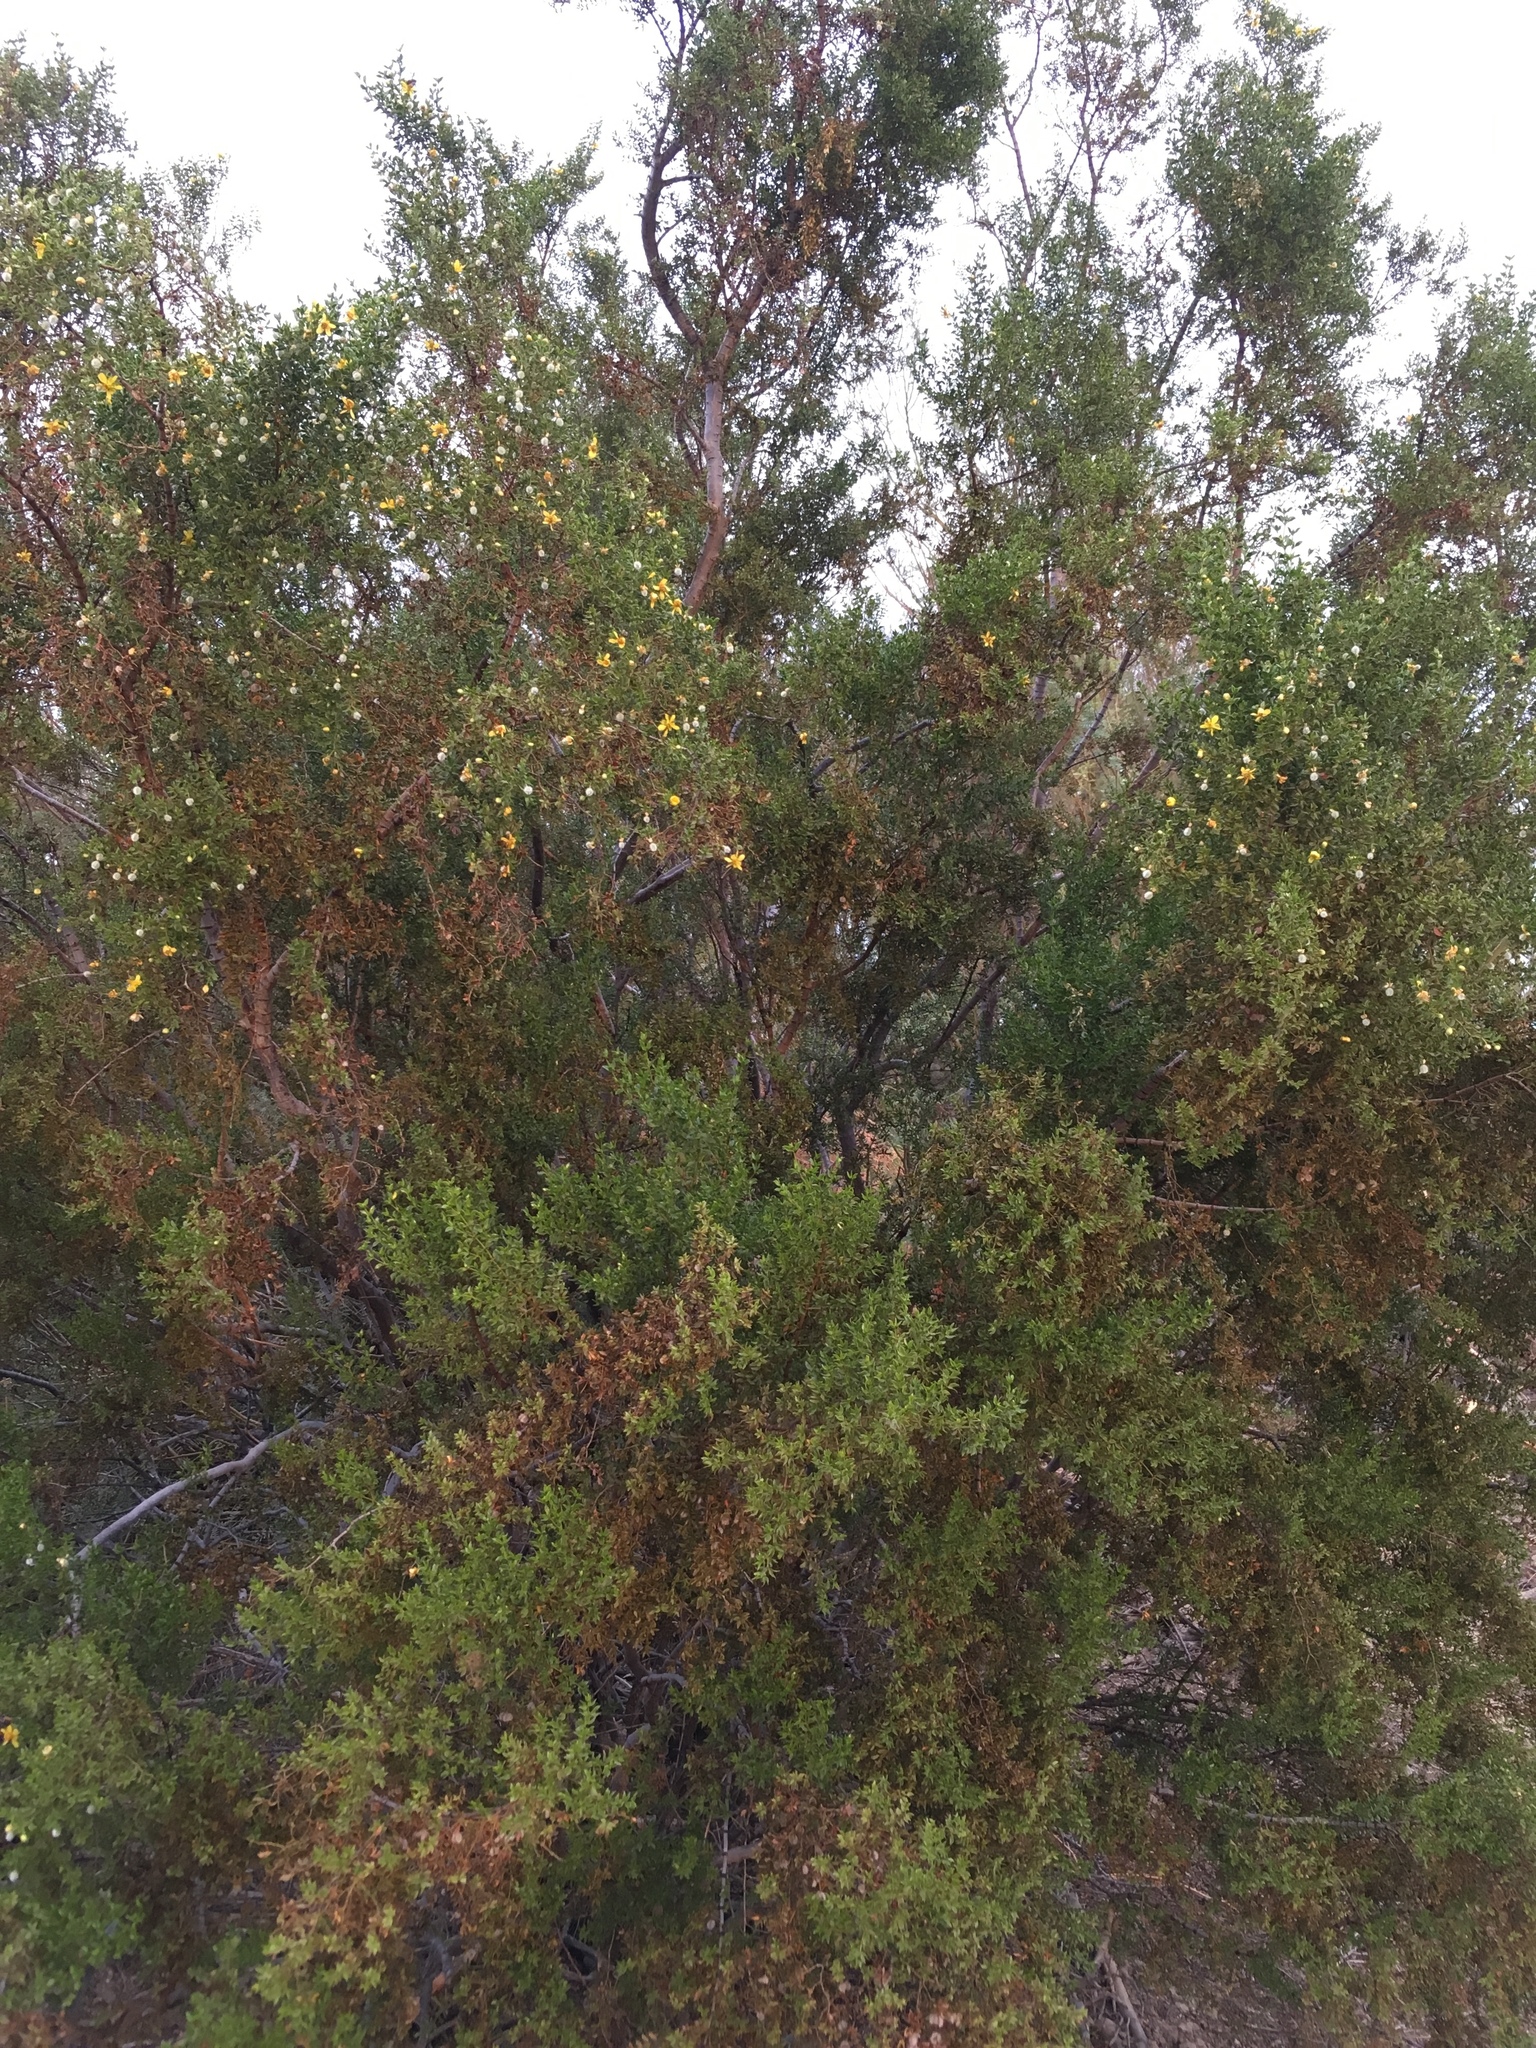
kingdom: Plantae
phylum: Tracheophyta
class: Magnoliopsida
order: Zygophyllales
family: Zygophyllaceae
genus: Larrea
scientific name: Larrea tridentata
